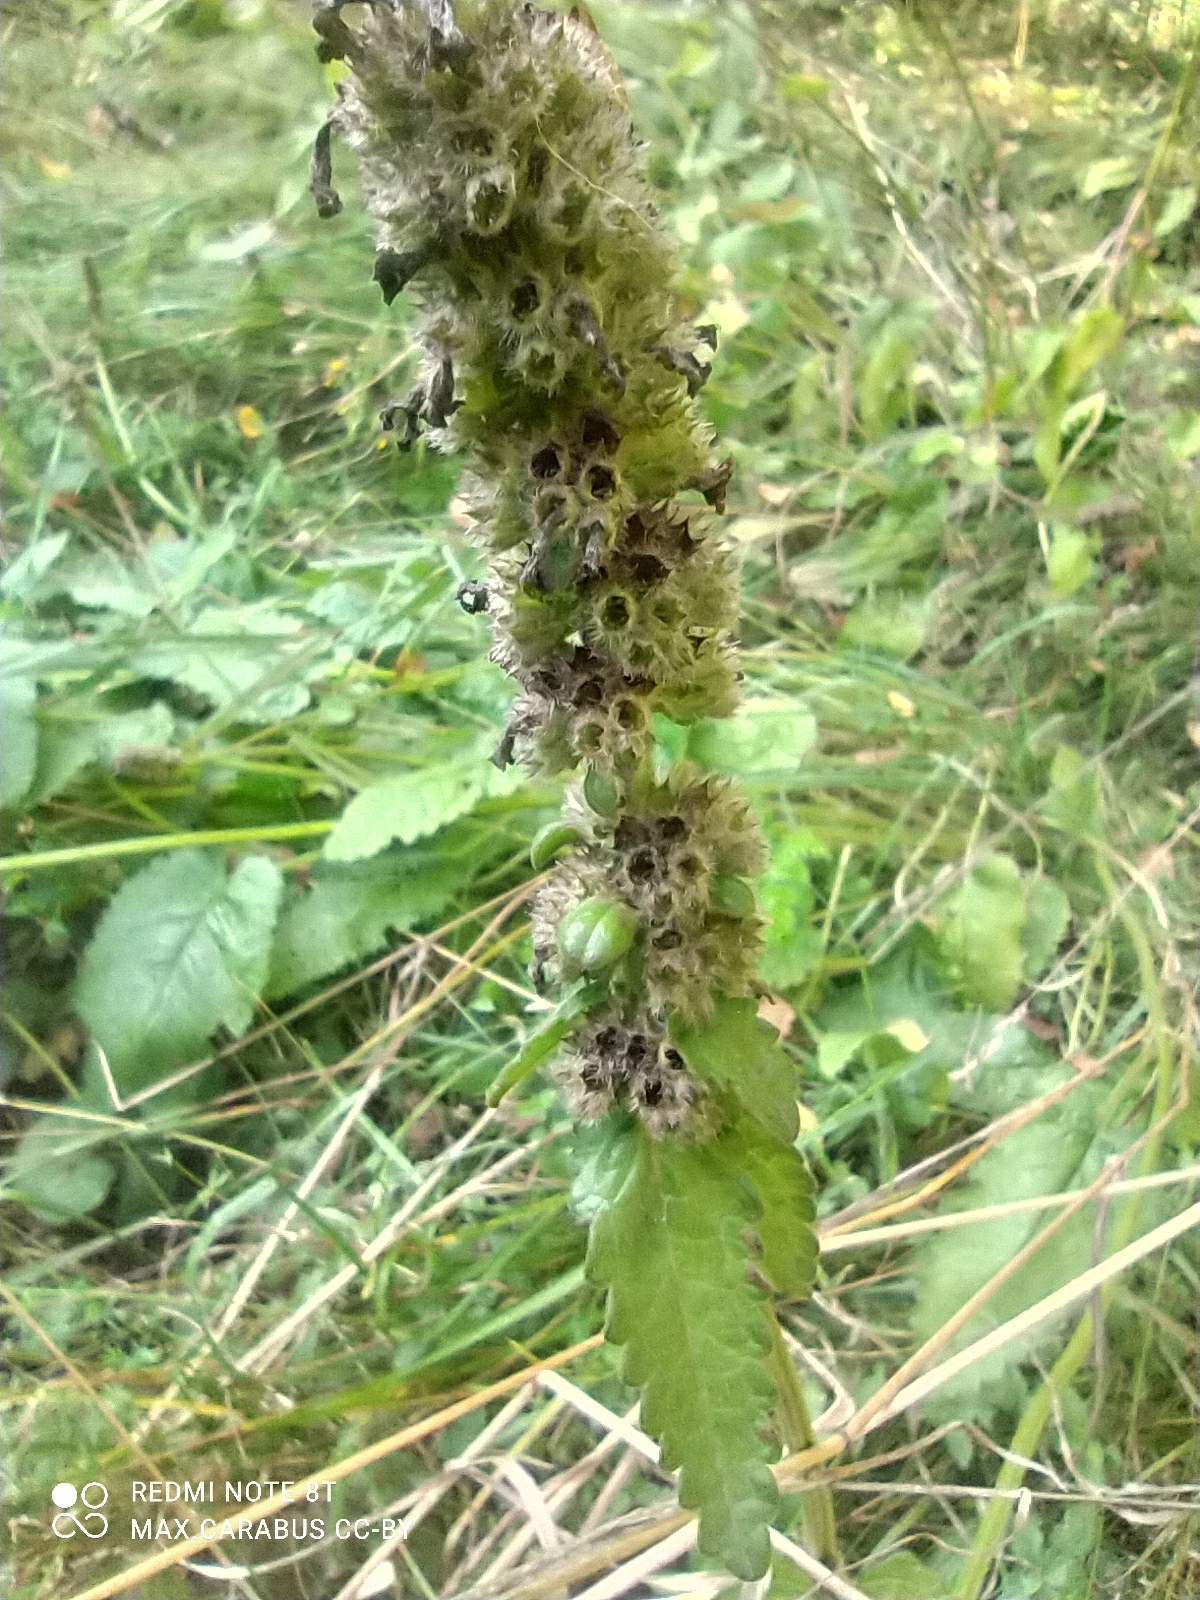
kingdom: Plantae
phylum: Tracheophyta
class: Magnoliopsida
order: Lamiales
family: Lamiaceae
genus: Betonica
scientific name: Betonica officinalis
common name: Bishop's-wort
